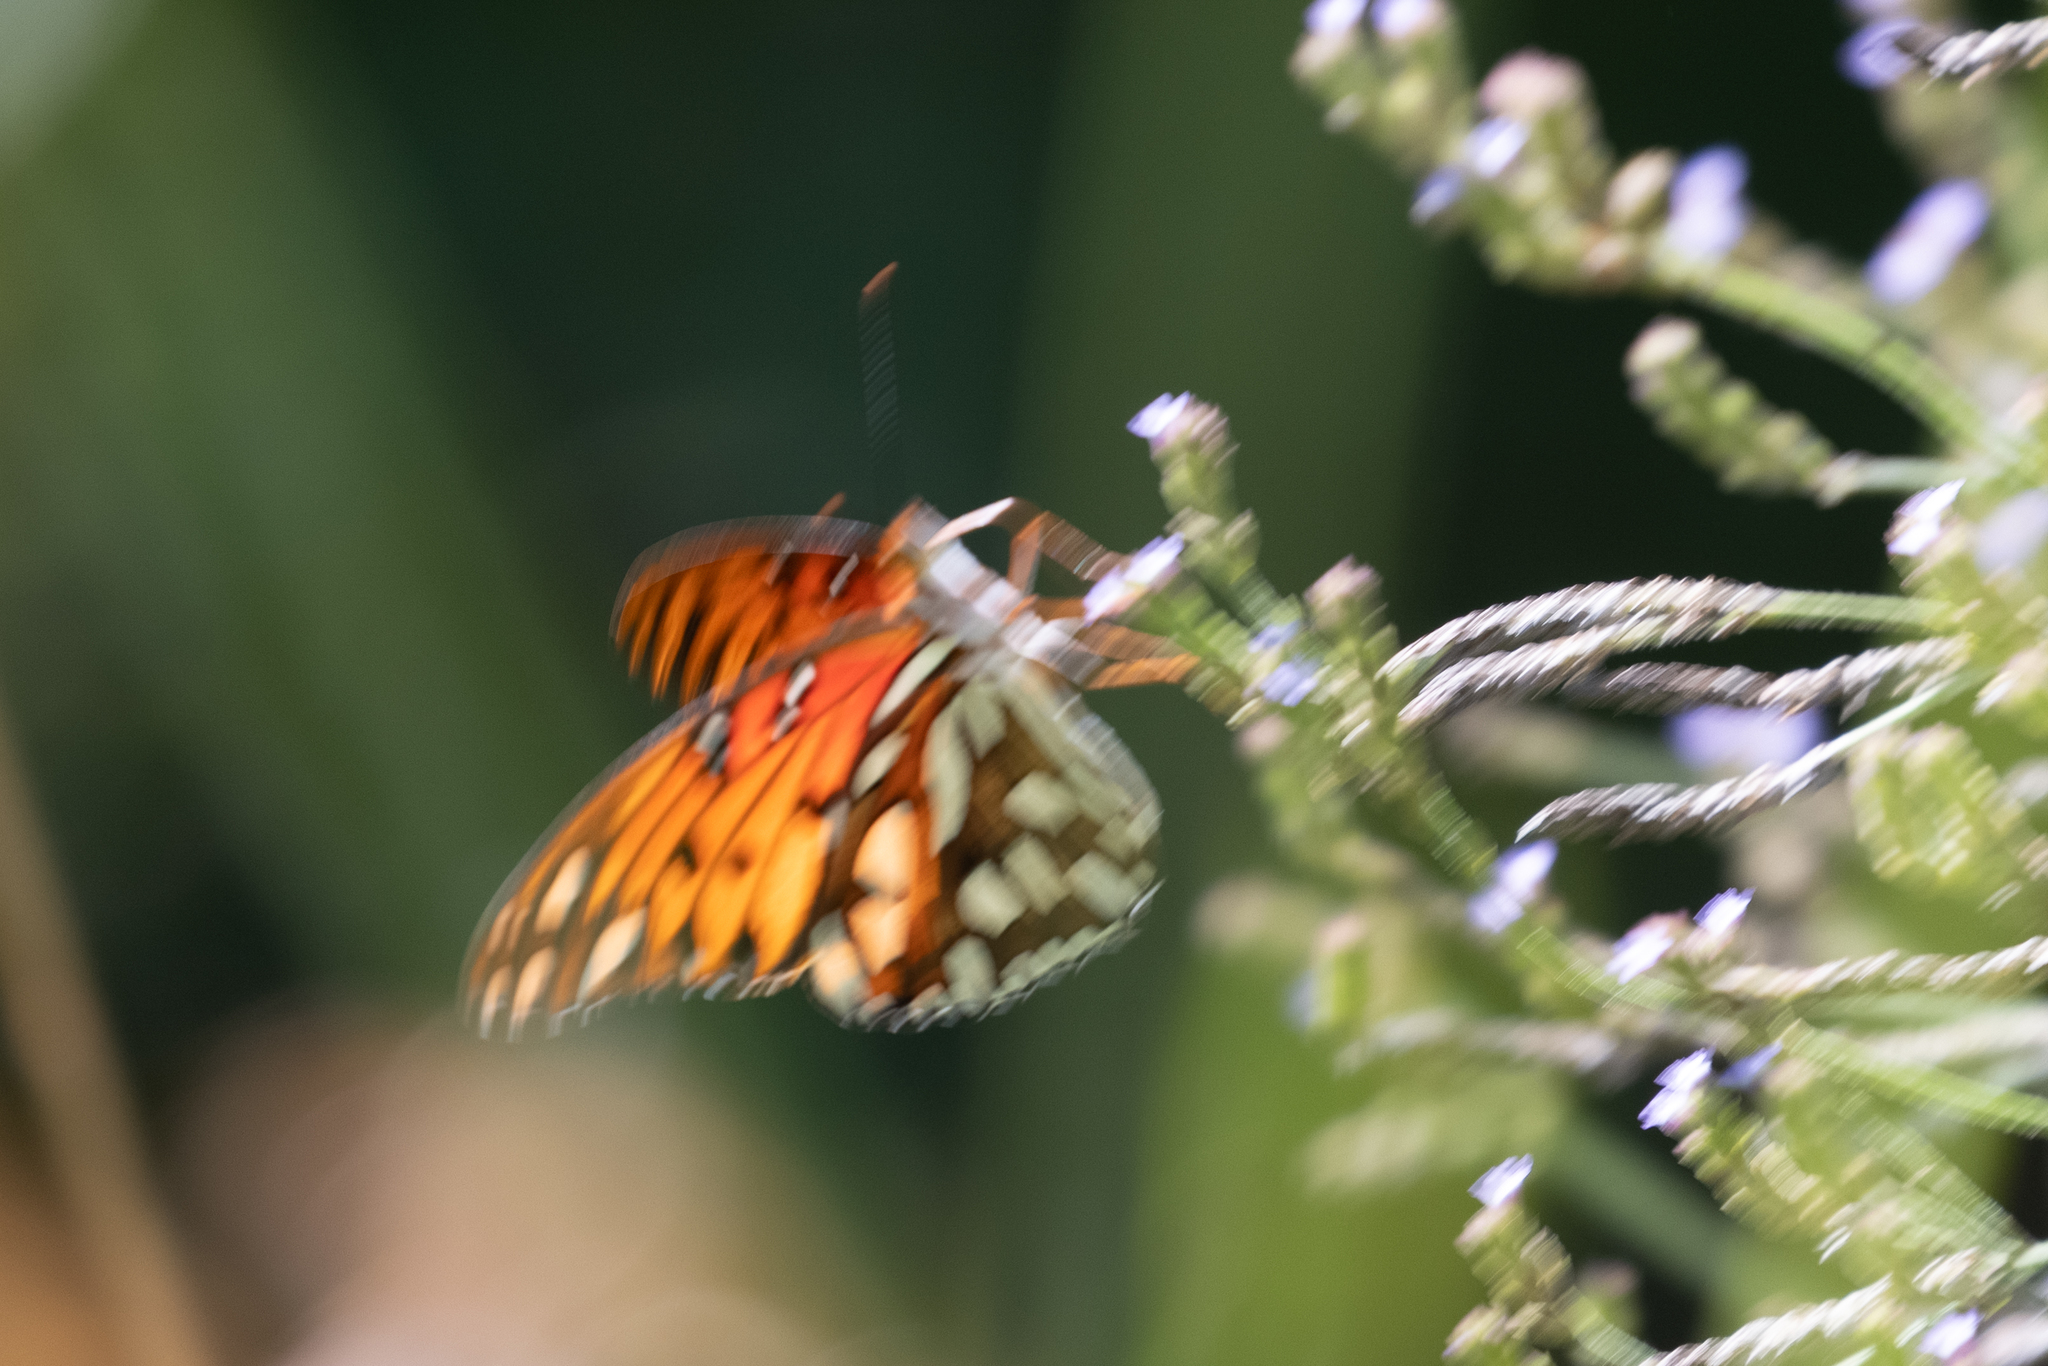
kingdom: Animalia
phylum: Arthropoda
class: Insecta
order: Lepidoptera
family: Nymphalidae
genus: Dione
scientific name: Dione vanillae
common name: Gulf fritillary
